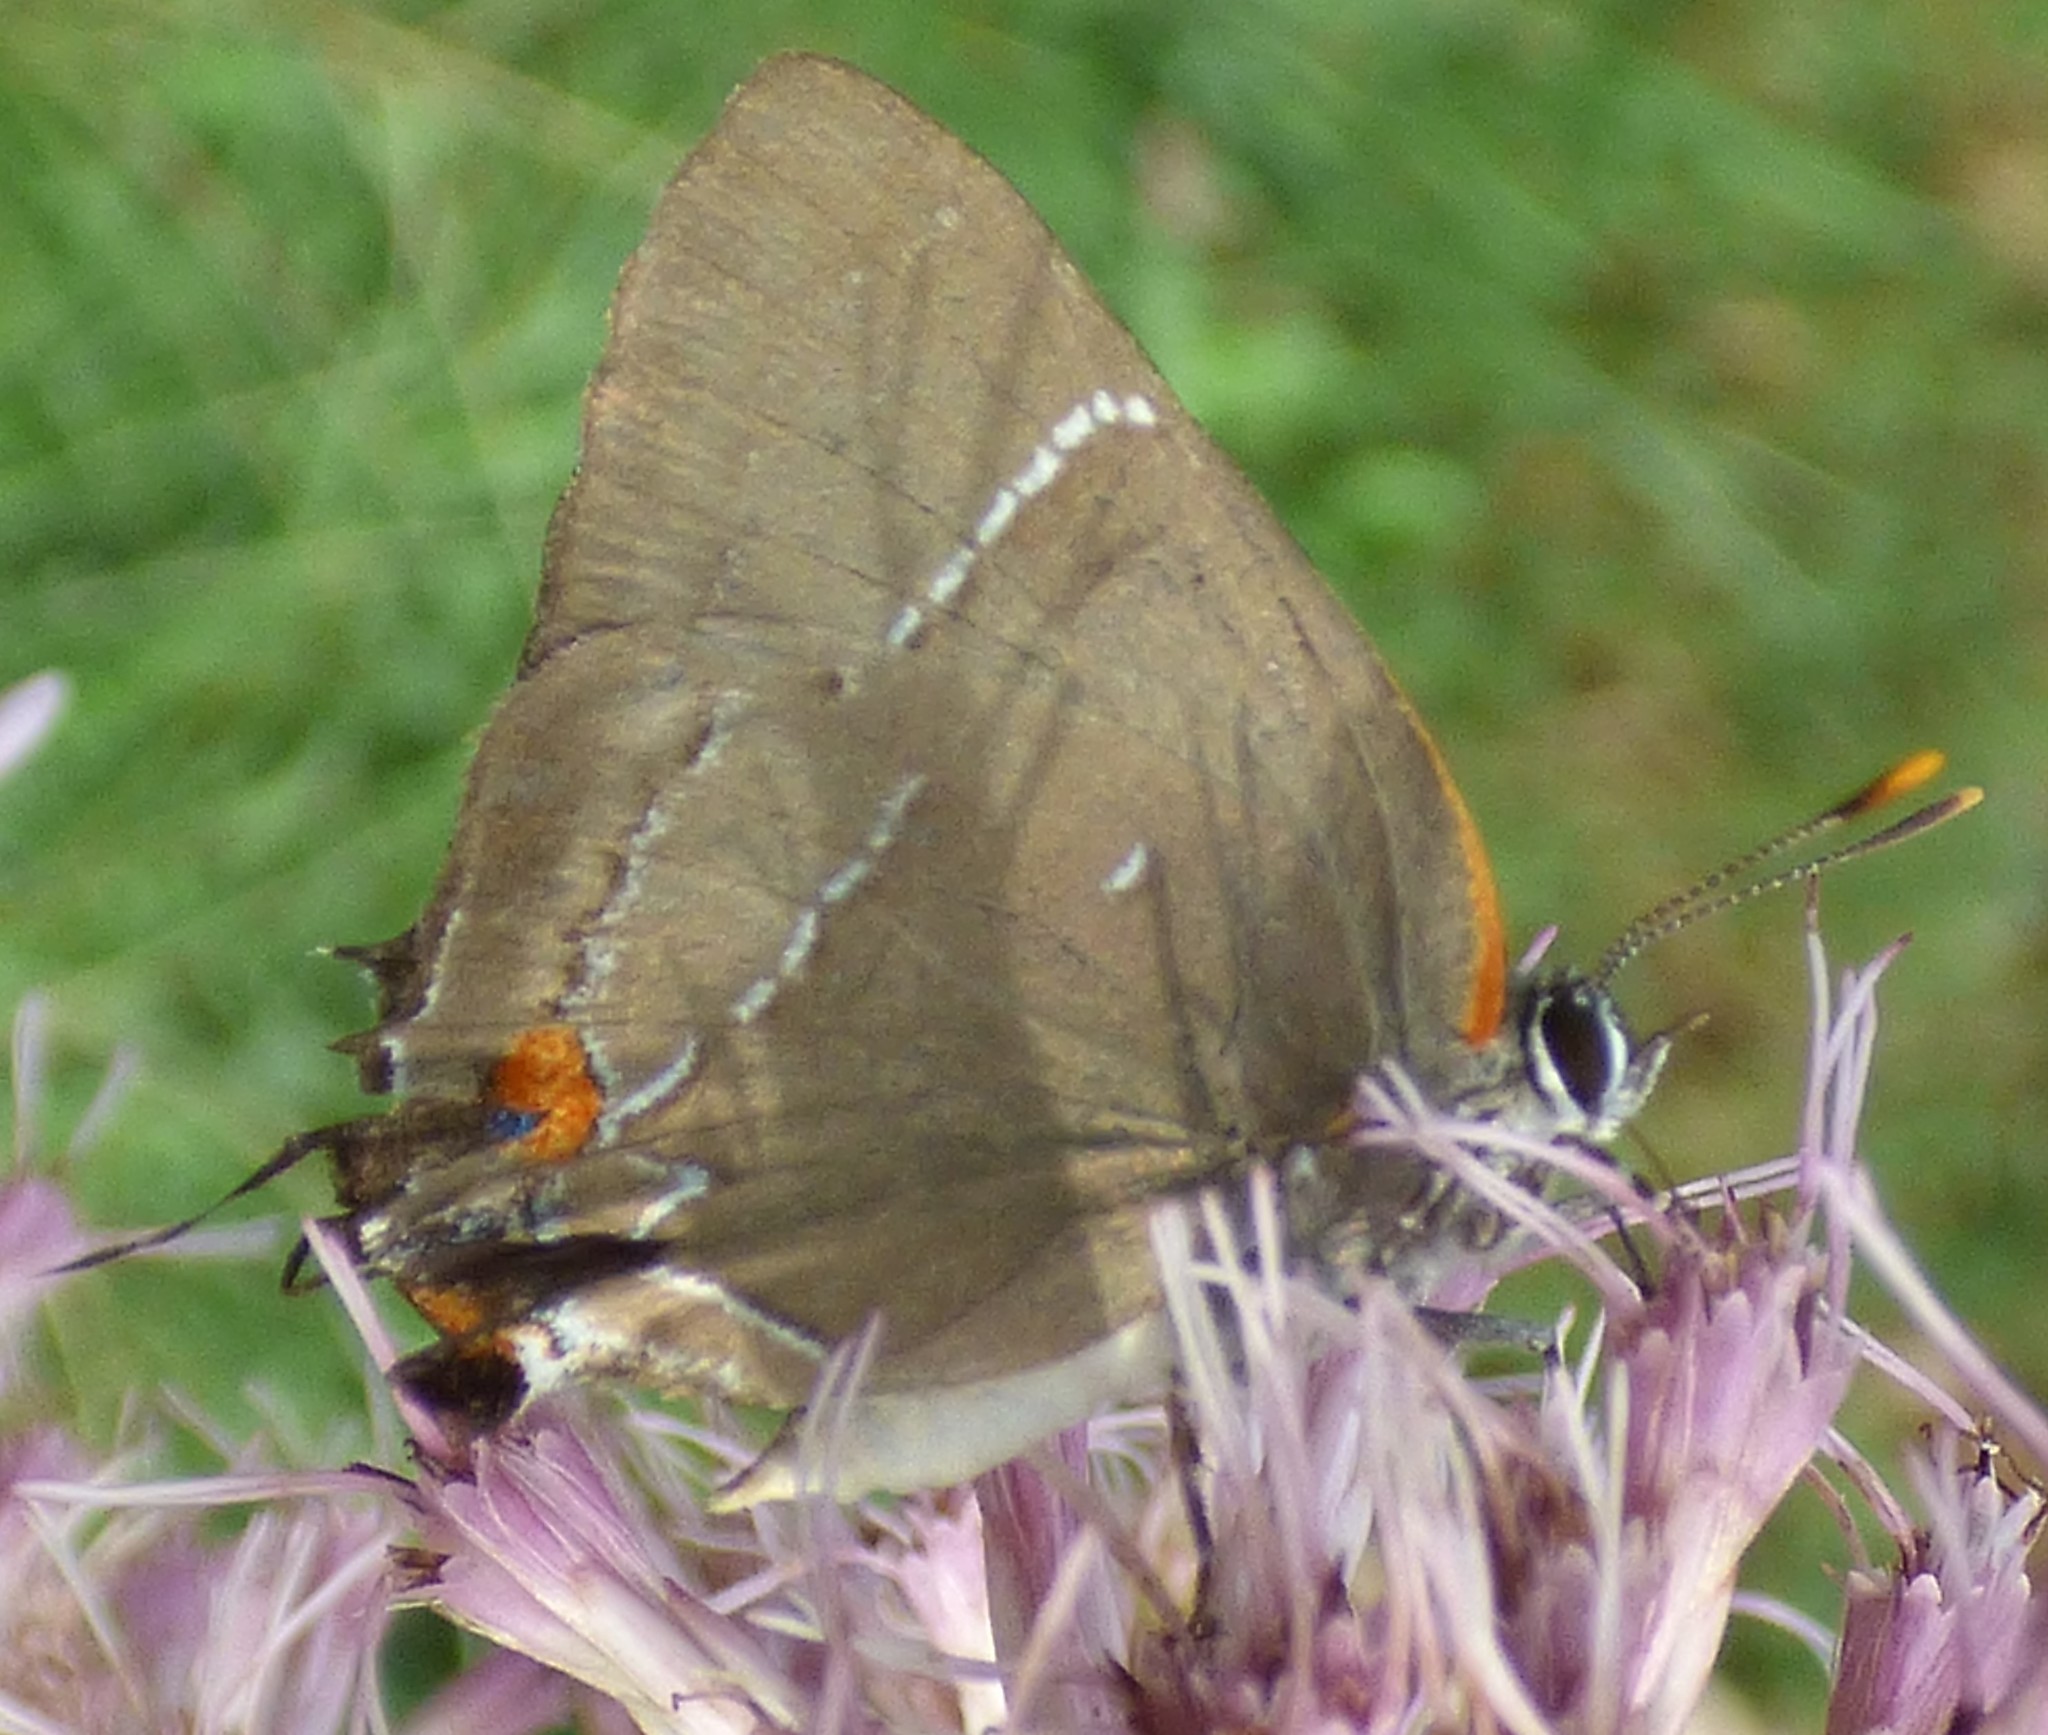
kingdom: Animalia
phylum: Arthropoda
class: Insecta
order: Lepidoptera
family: Lycaenidae
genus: Parrhasius
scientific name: Parrhasius m-album
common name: White m hairstreak
